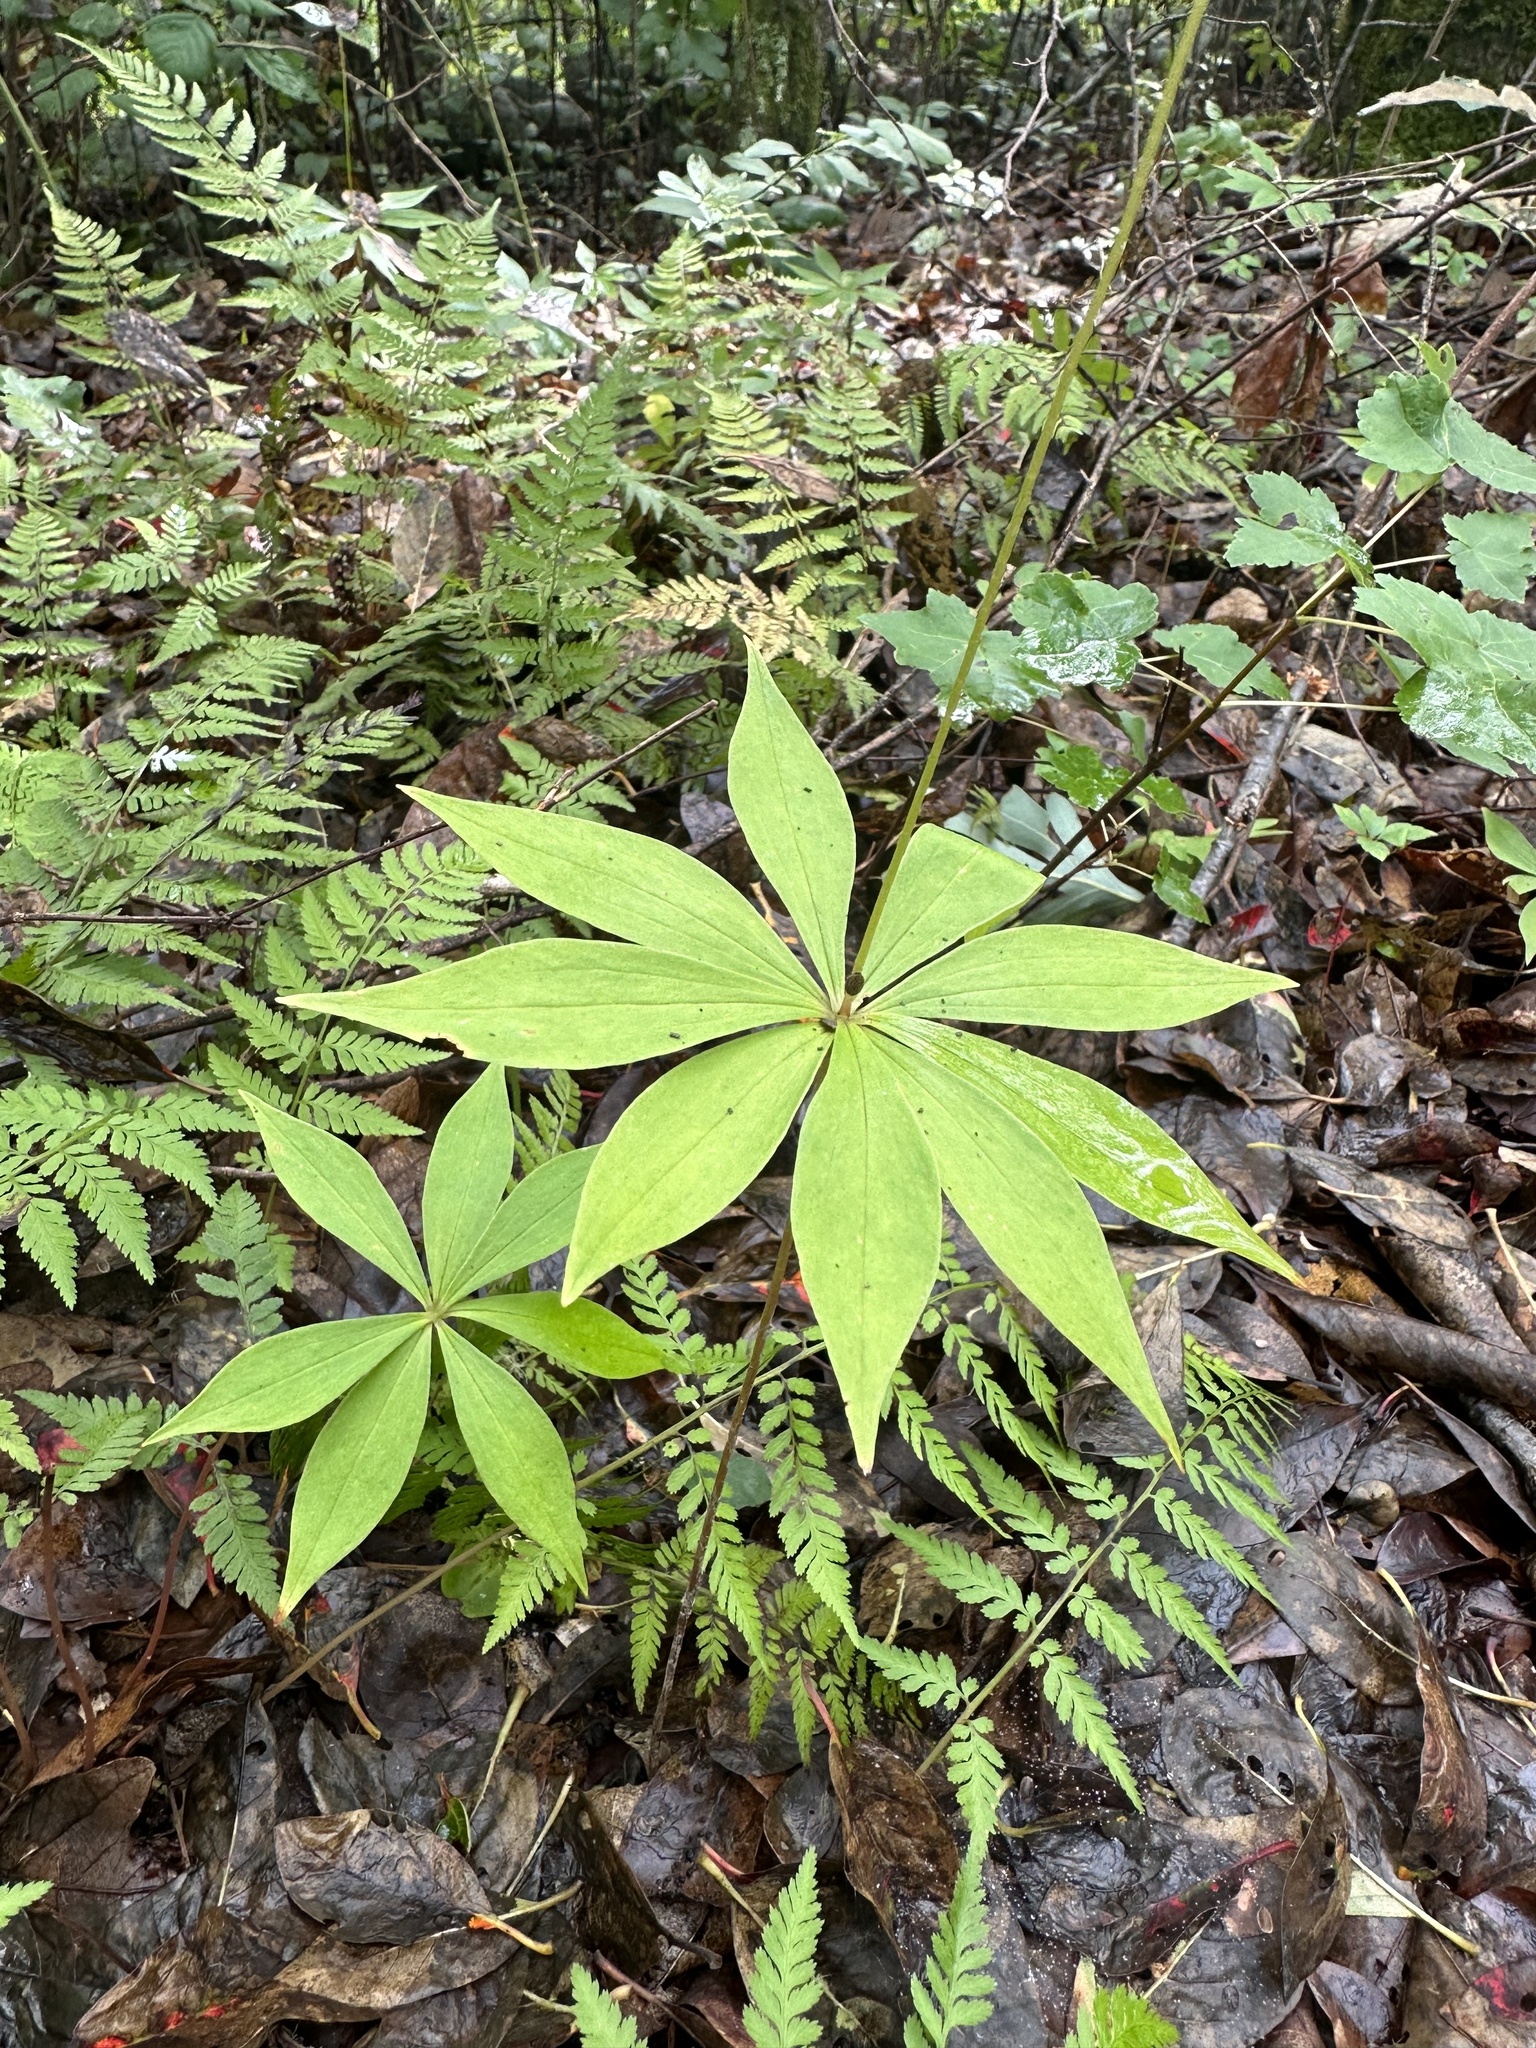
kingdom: Plantae
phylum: Tracheophyta
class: Liliopsida
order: Liliales
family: Liliaceae
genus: Medeola
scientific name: Medeola virginiana
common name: Indian cucumber-root
